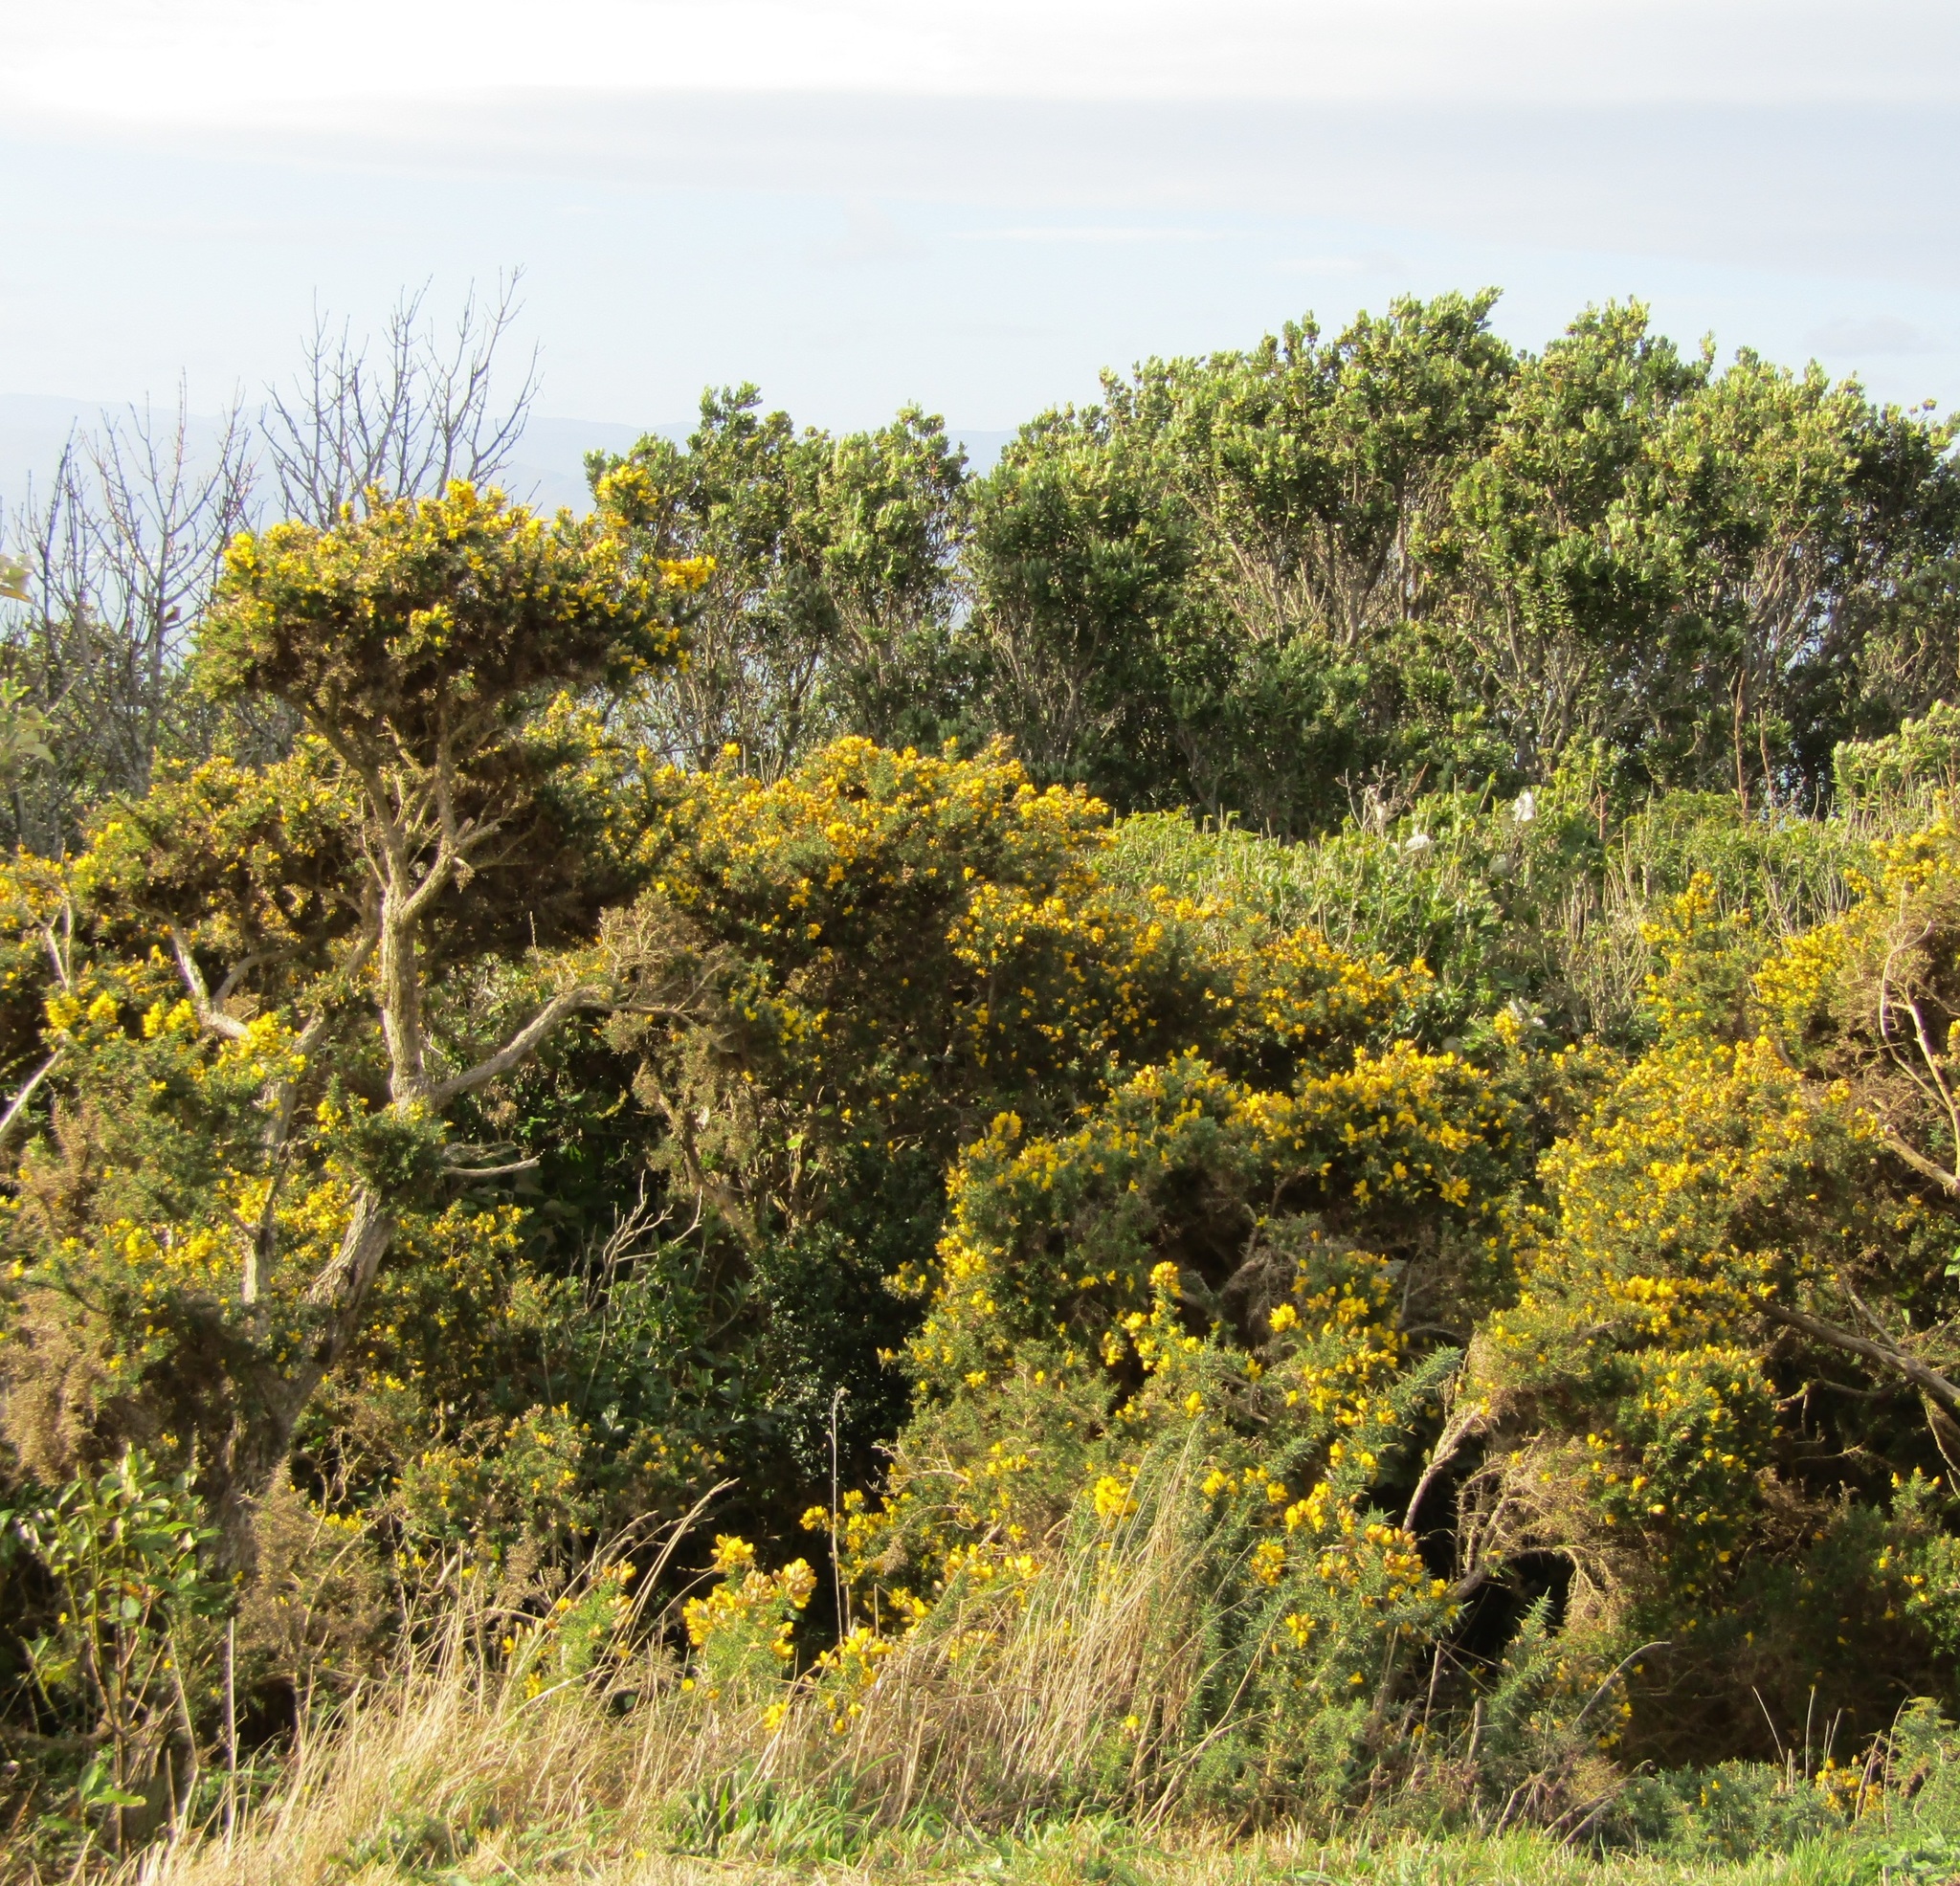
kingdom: Plantae
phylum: Tracheophyta
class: Magnoliopsida
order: Fabales
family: Fabaceae
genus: Ulex
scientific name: Ulex europaeus
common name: Common gorse
